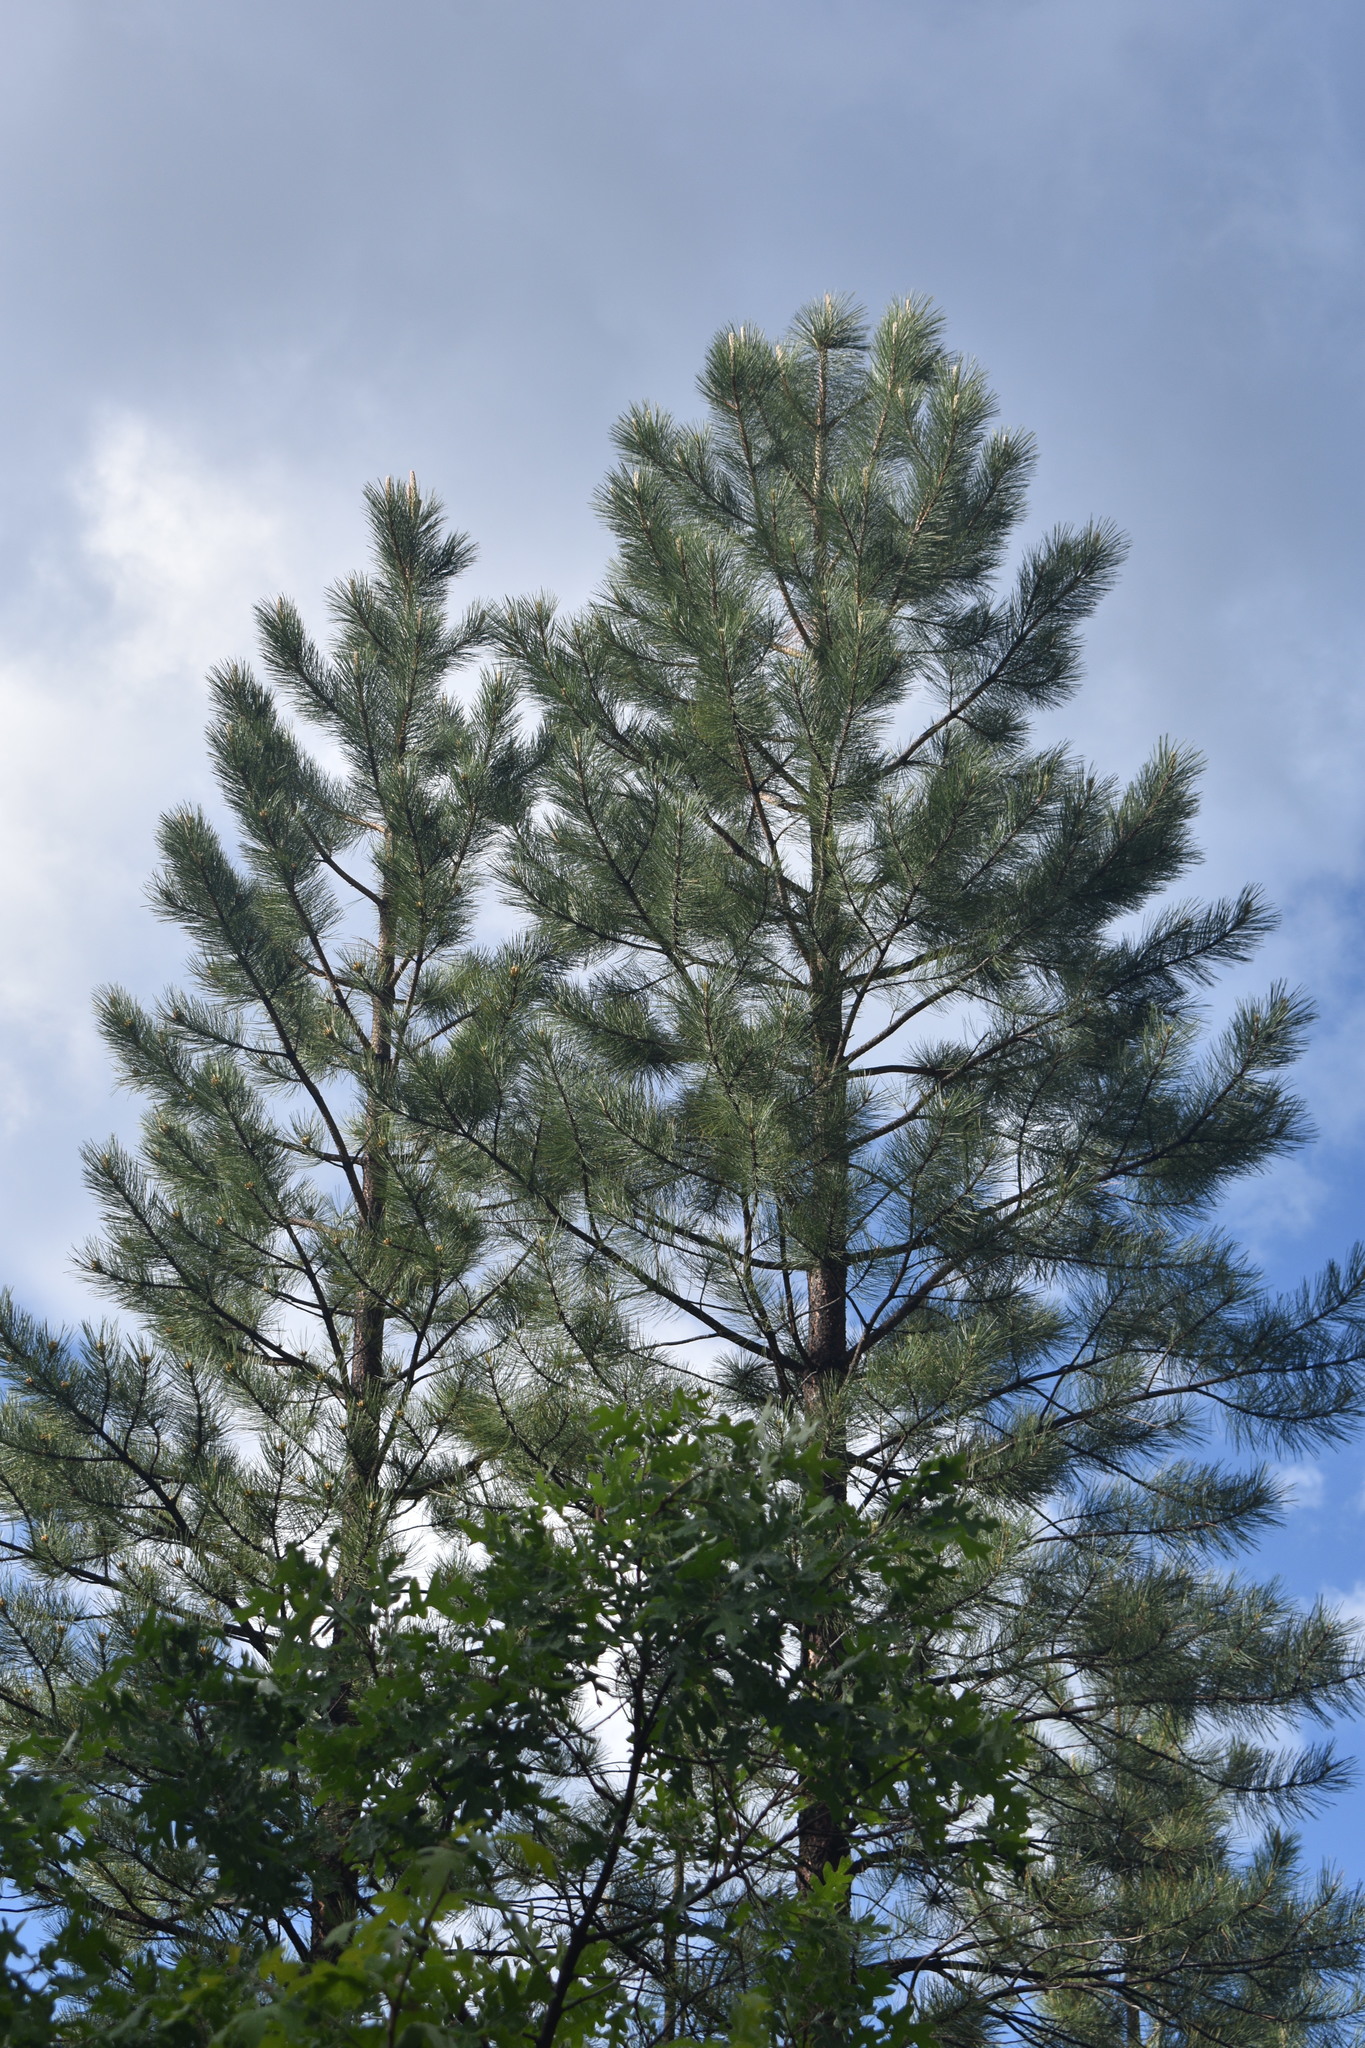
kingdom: Plantae
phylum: Tracheophyta
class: Pinopsida
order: Pinales
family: Pinaceae
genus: Pinus
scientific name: Pinus ponderosa
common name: Western yellow-pine
